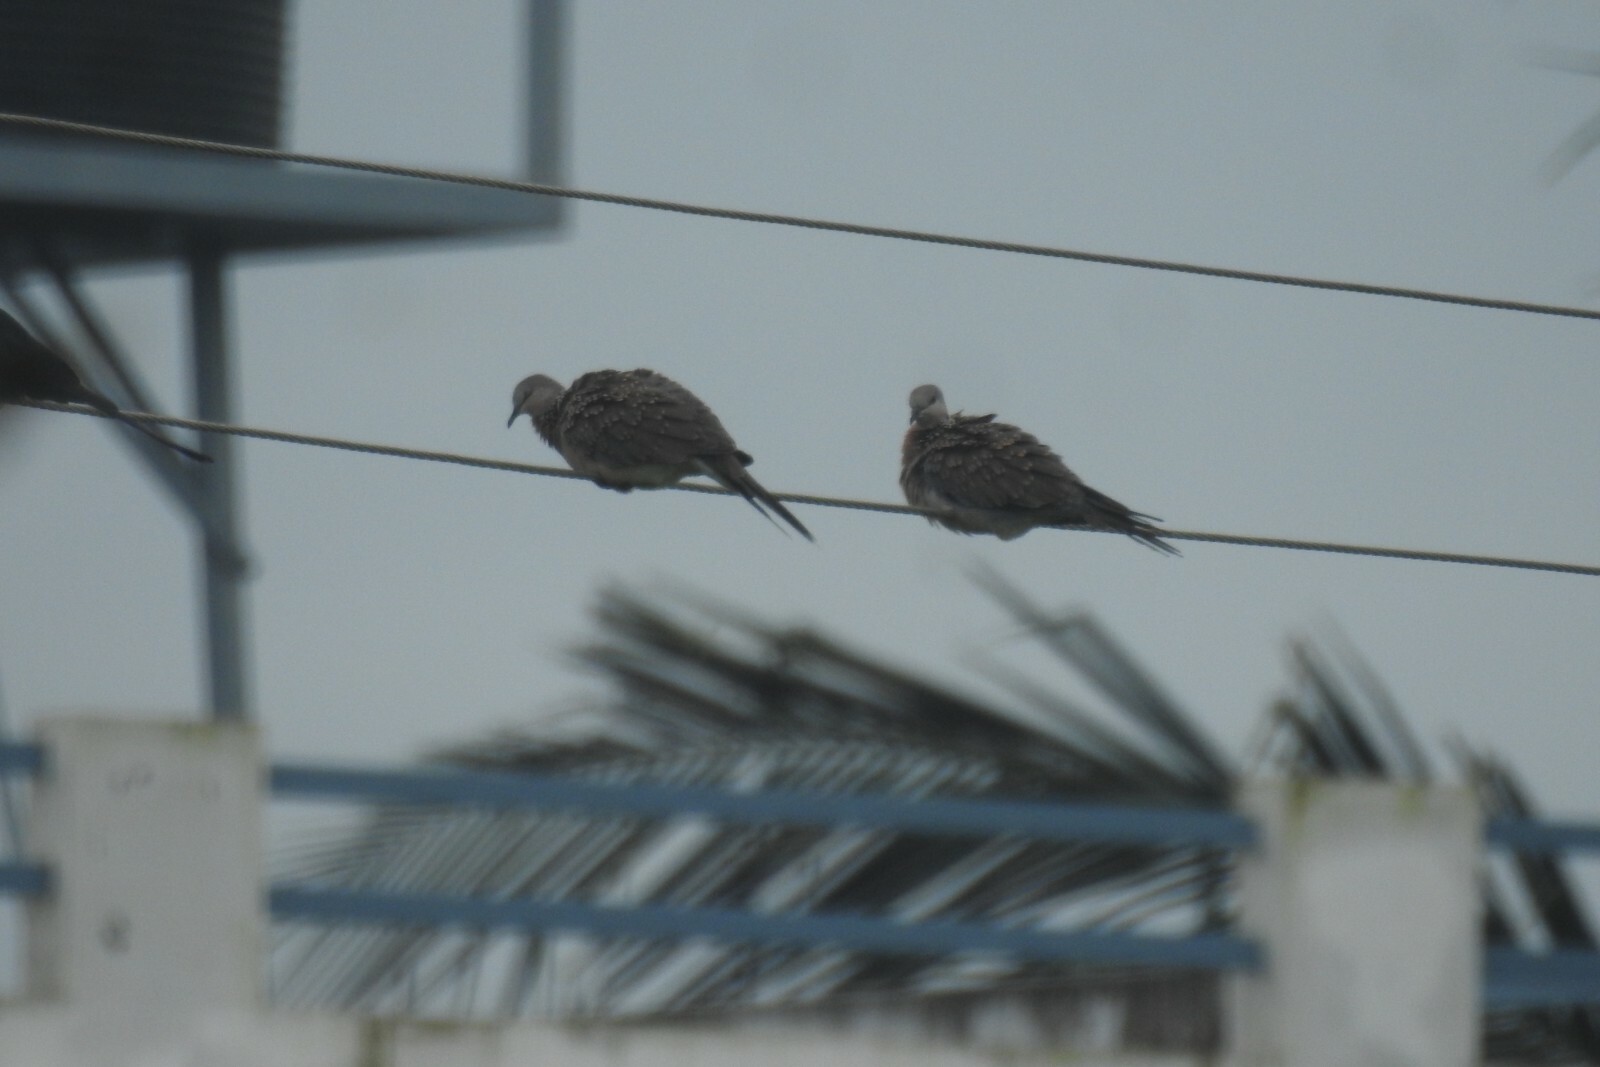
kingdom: Animalia
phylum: Chordata
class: Aves
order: Columbiformes
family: Columbidae
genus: Spilopelia
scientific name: Spilopelia chinensis
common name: Spotted dove
